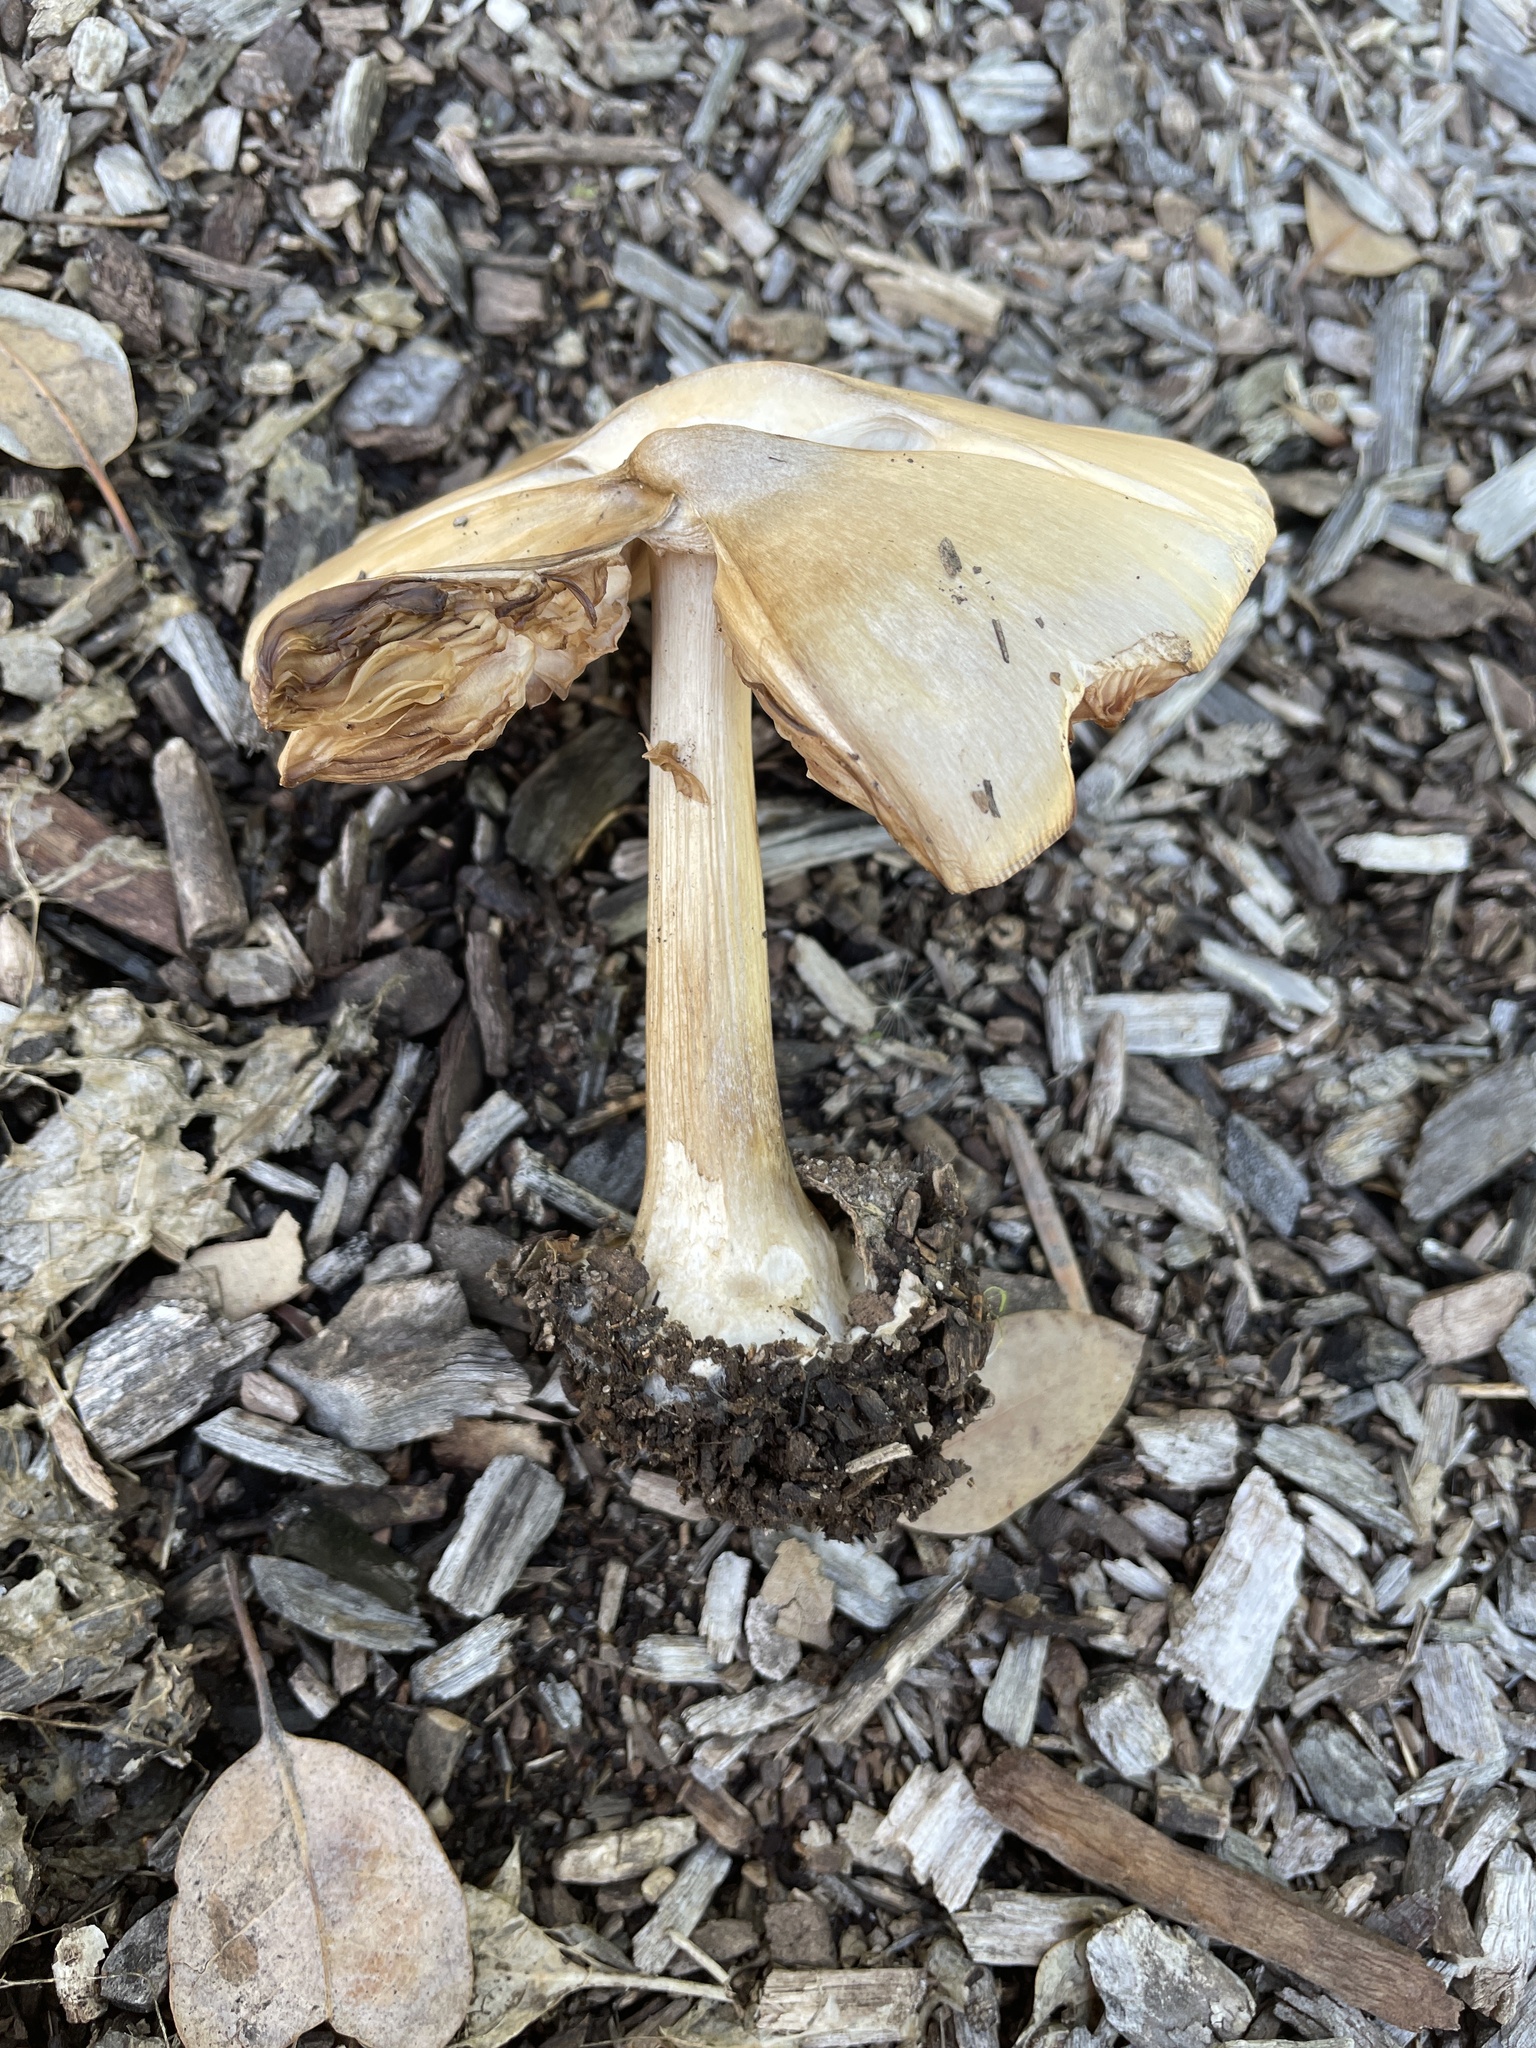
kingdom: Fungi
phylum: Basidiomycota
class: Agaricomycetes
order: Agaricales
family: Pluteaceae
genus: Volvopluteus
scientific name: Volvopluteus gloiocephalus
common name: Stubble rosegill
